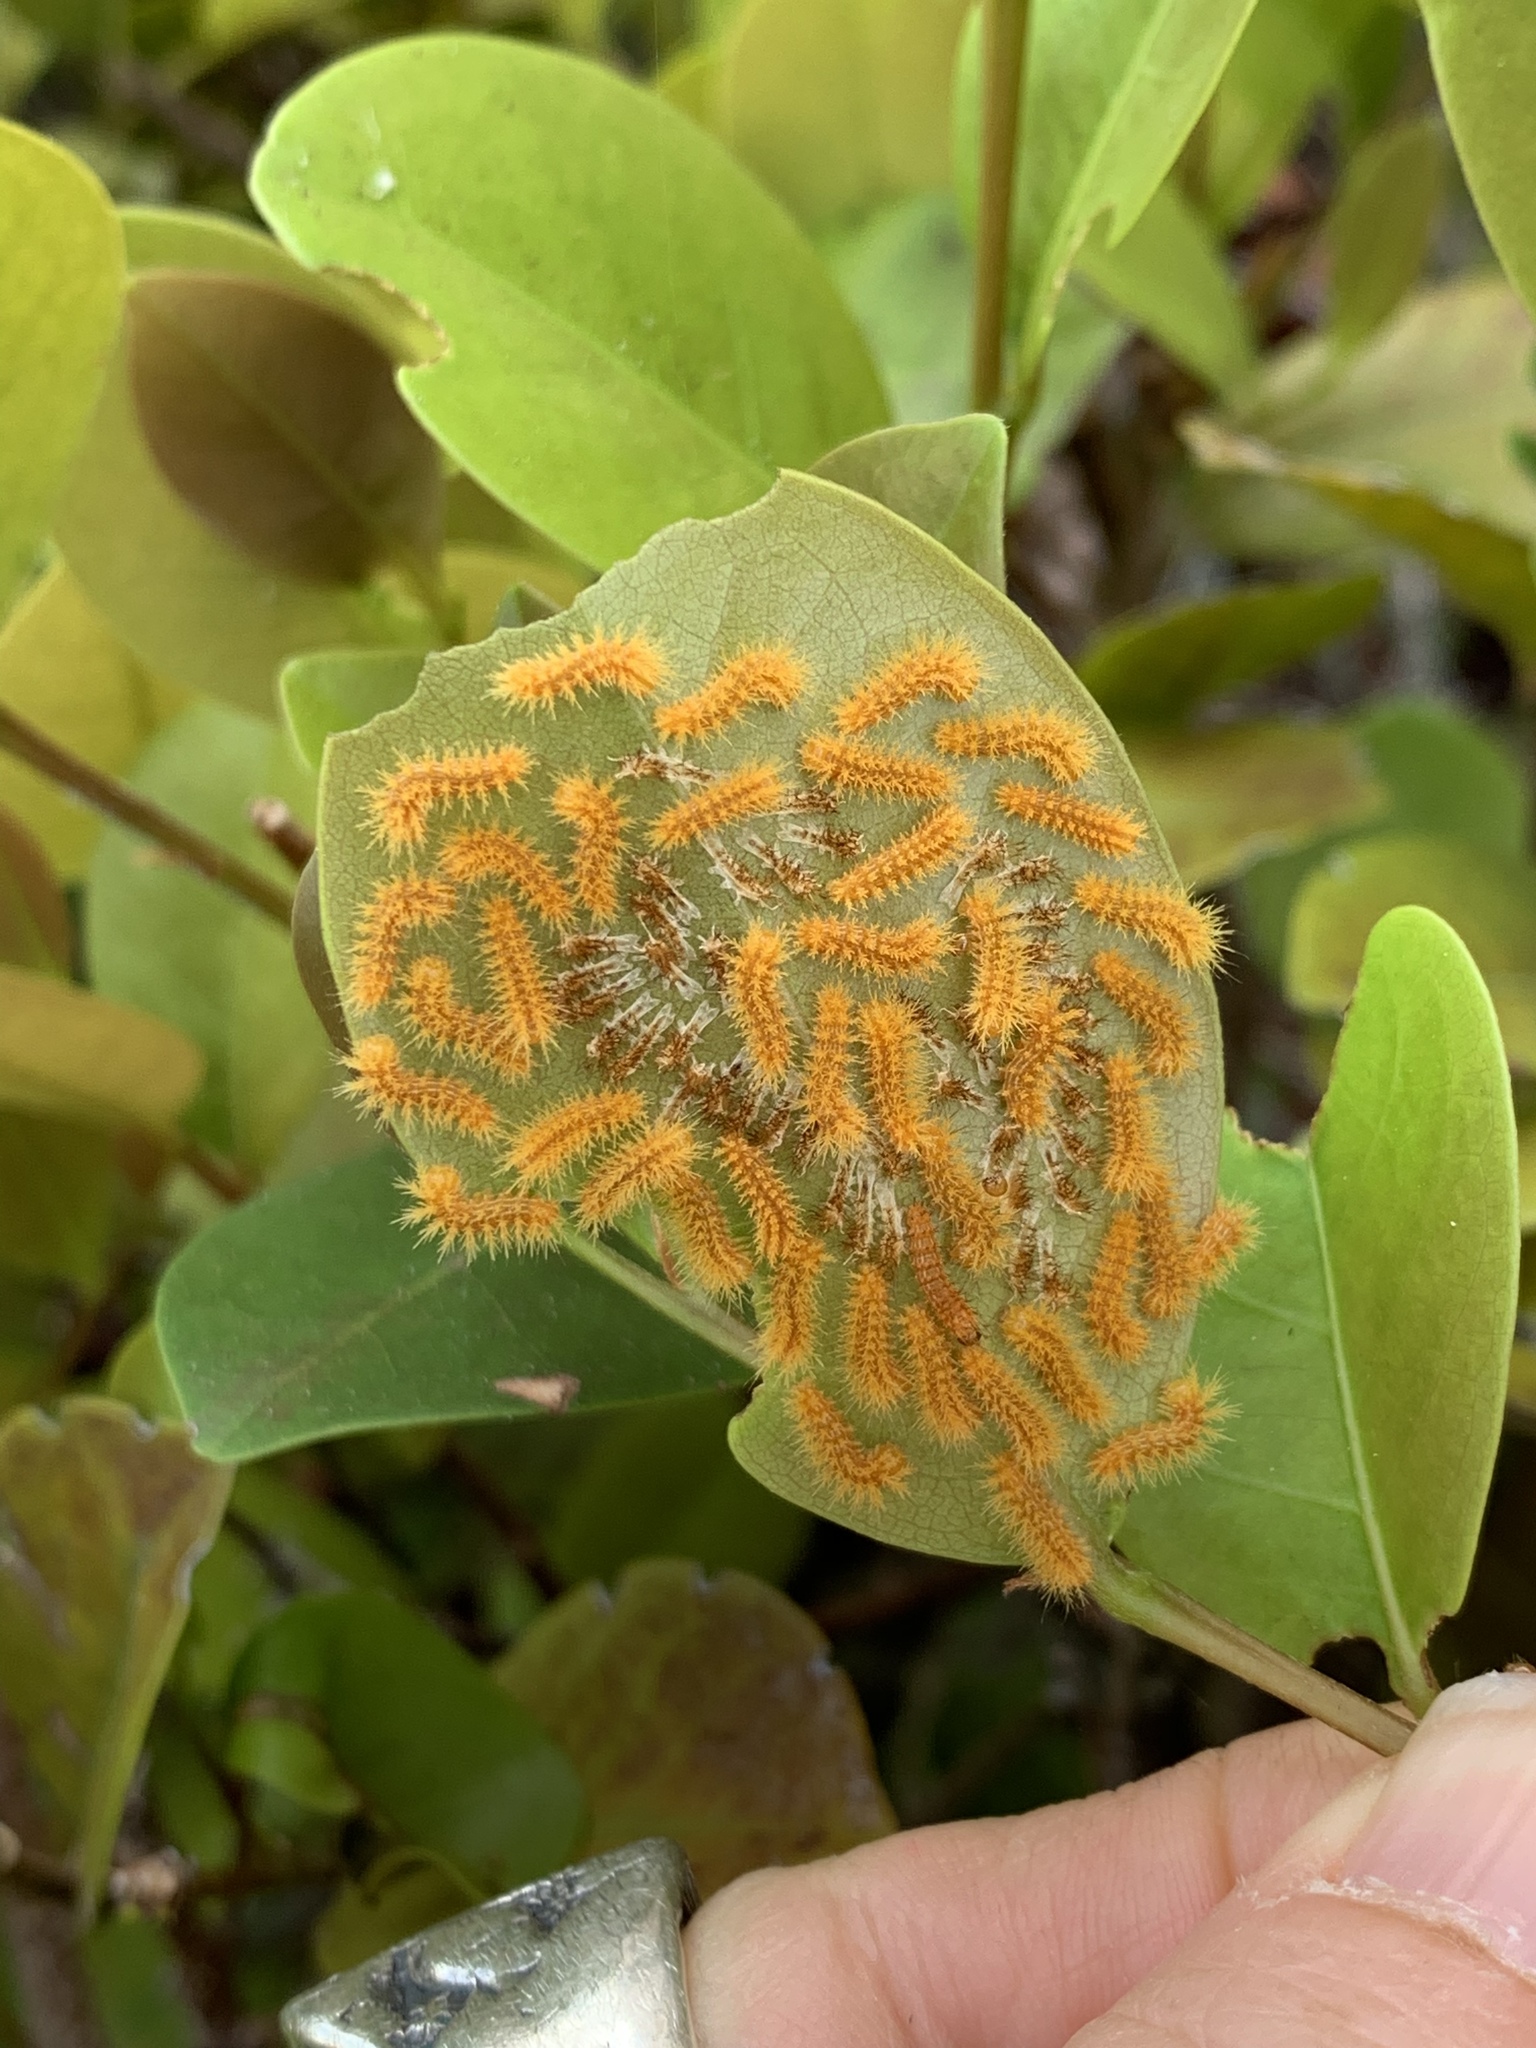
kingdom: Animalia
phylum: Arthropoda
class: Insecta
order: Lepidoptera
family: Saturniidae
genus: Automeris
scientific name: Automeris io
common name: Io moth
